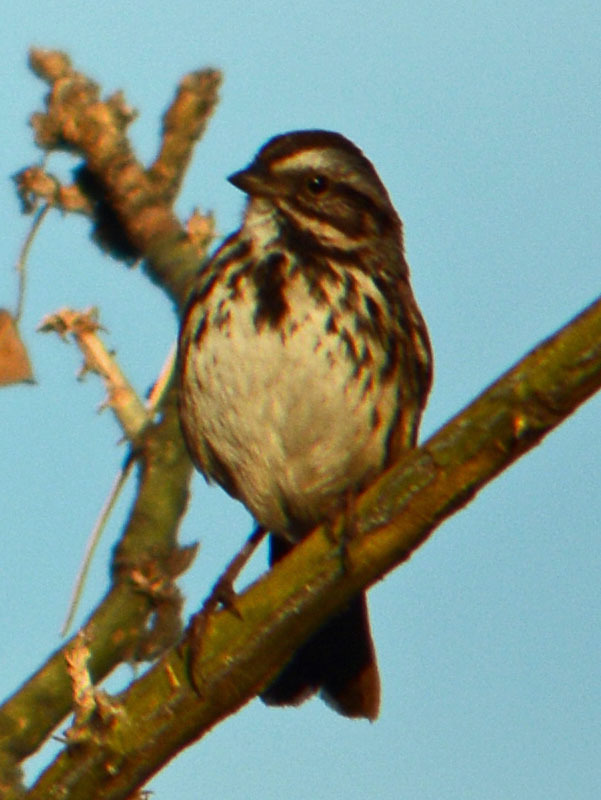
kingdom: Animalia
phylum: Chordata
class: Aves
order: Passeriformes
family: Passerellidae
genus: Melospiza
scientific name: Melospiza melodia
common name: Song sparrow
